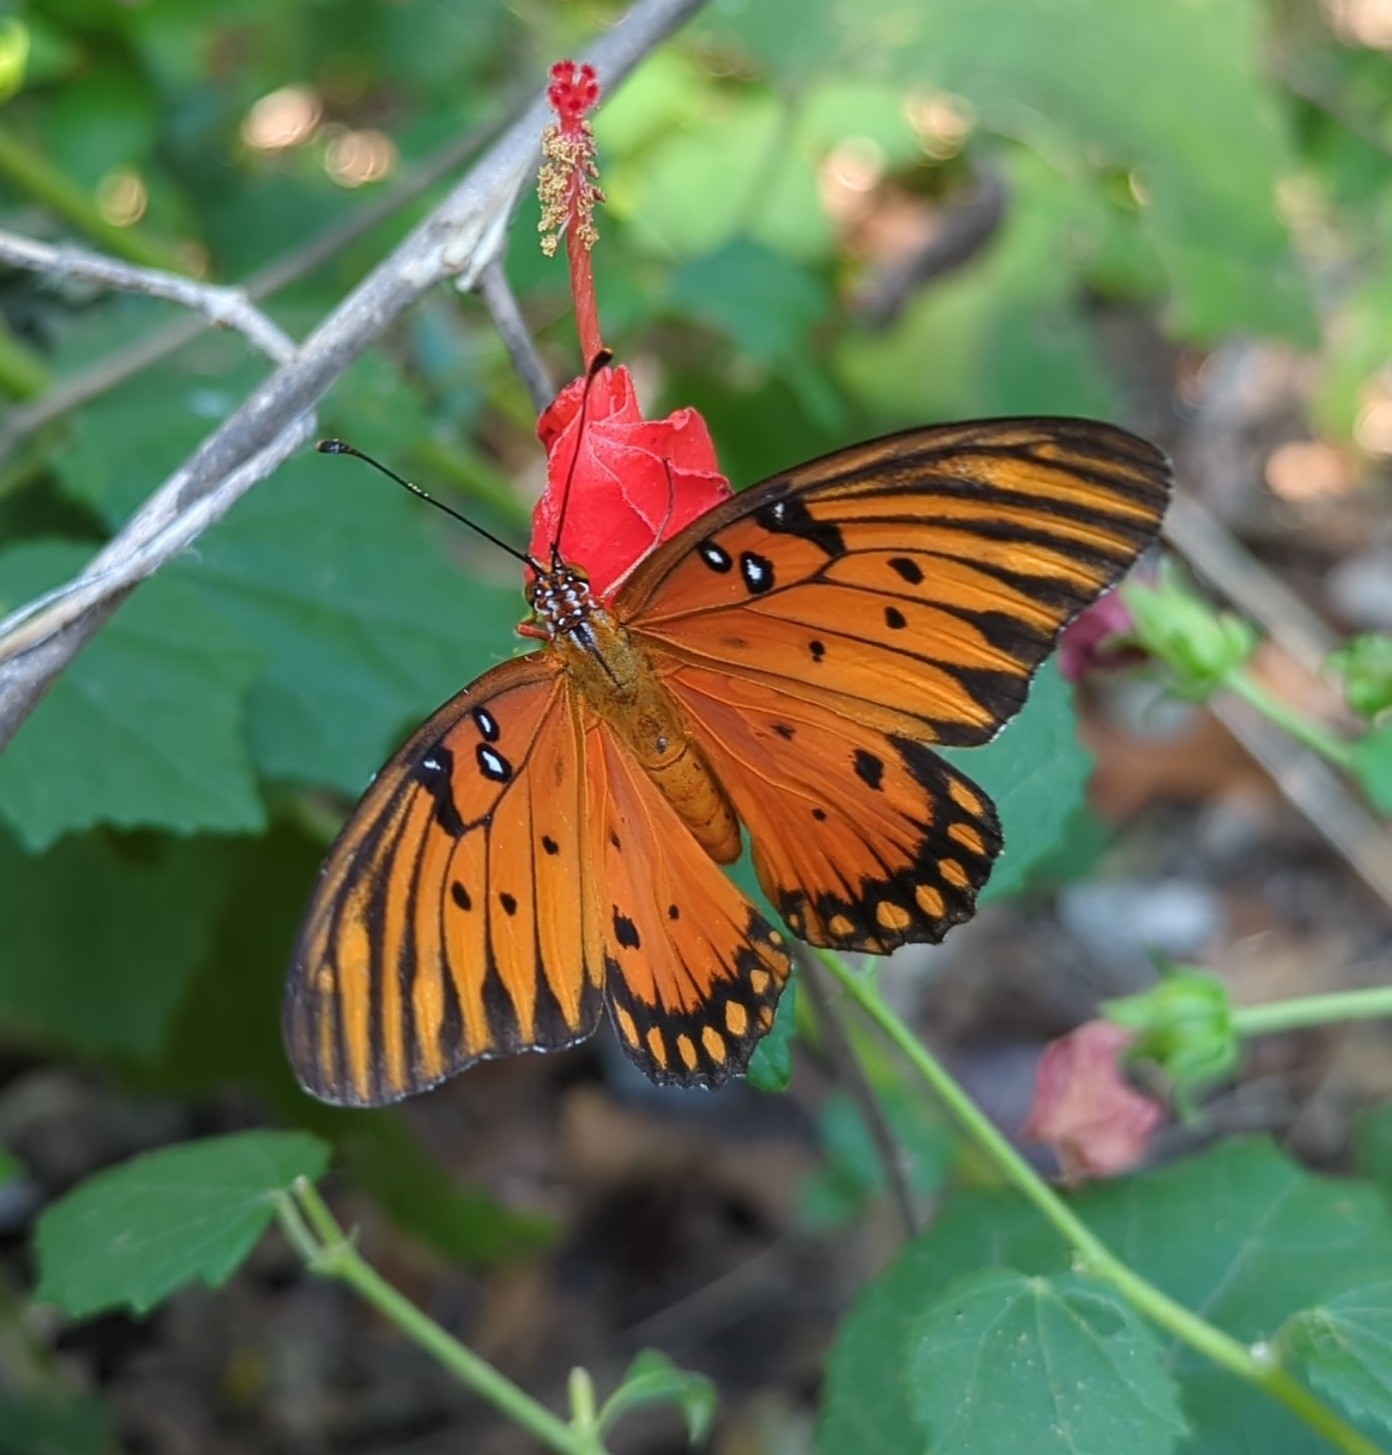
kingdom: Animalia
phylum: Arthropoda
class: Insecta
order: Lepidoptera
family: Nymphalidae
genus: Dione
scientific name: Dione vanillae
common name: Gulf fritillary
